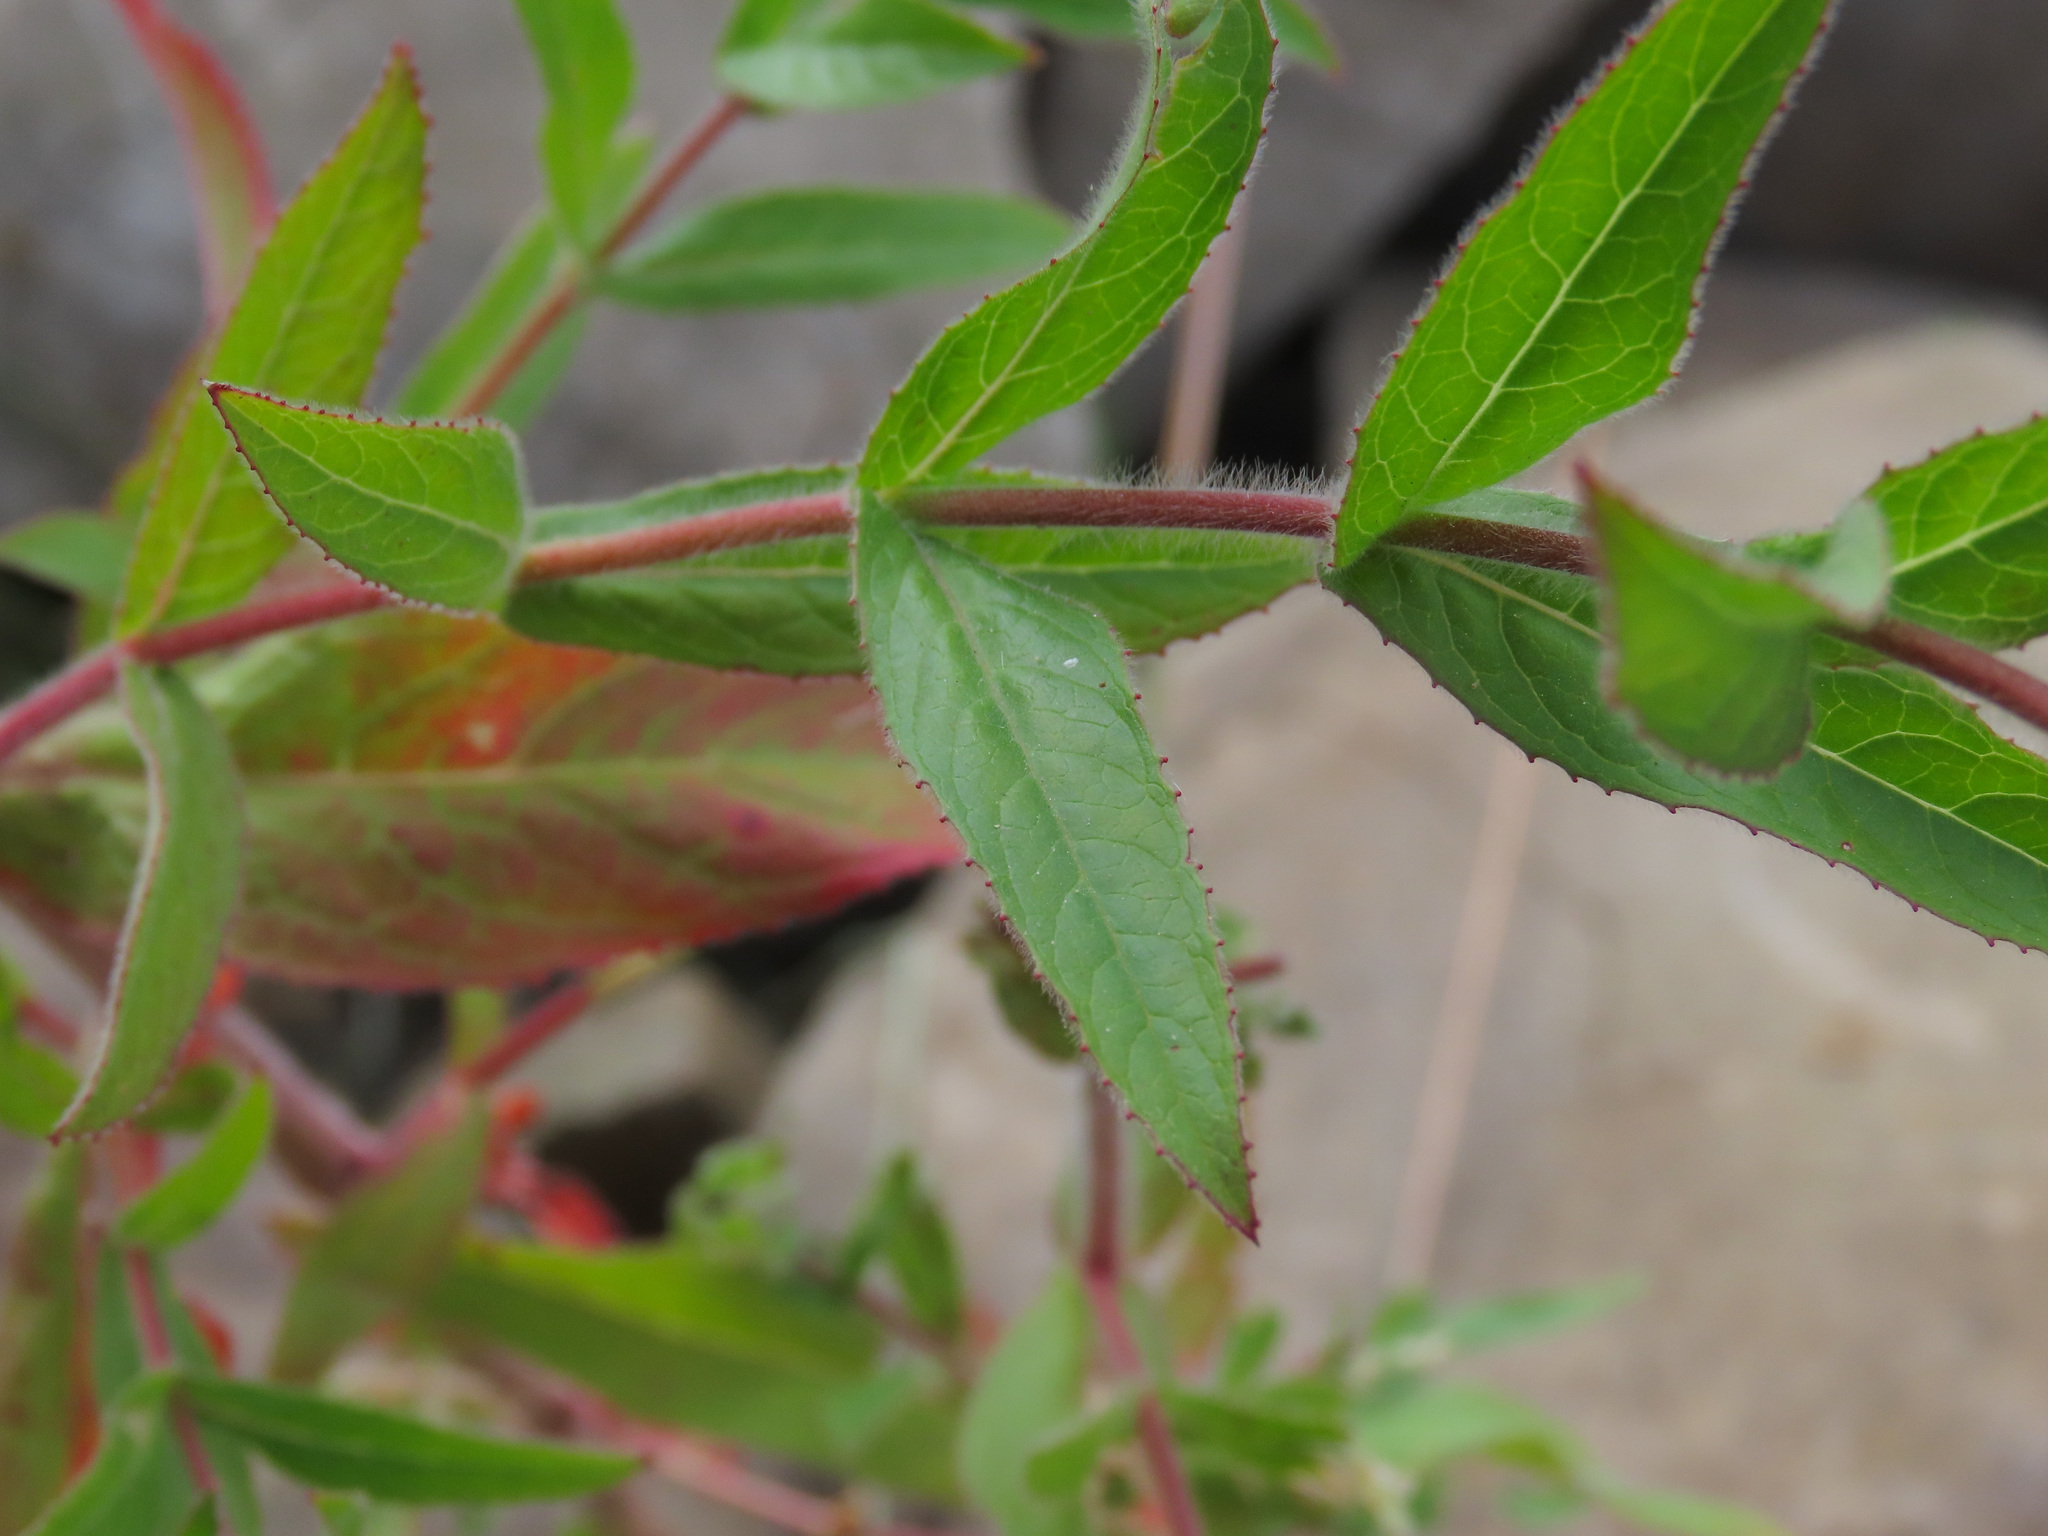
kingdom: Plantae
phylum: Tracheophyta
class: Magnoliopsida
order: Myrtales
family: Onagraceae
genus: Epilobium
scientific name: Epilobium hirsutum
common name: Great willowherb
